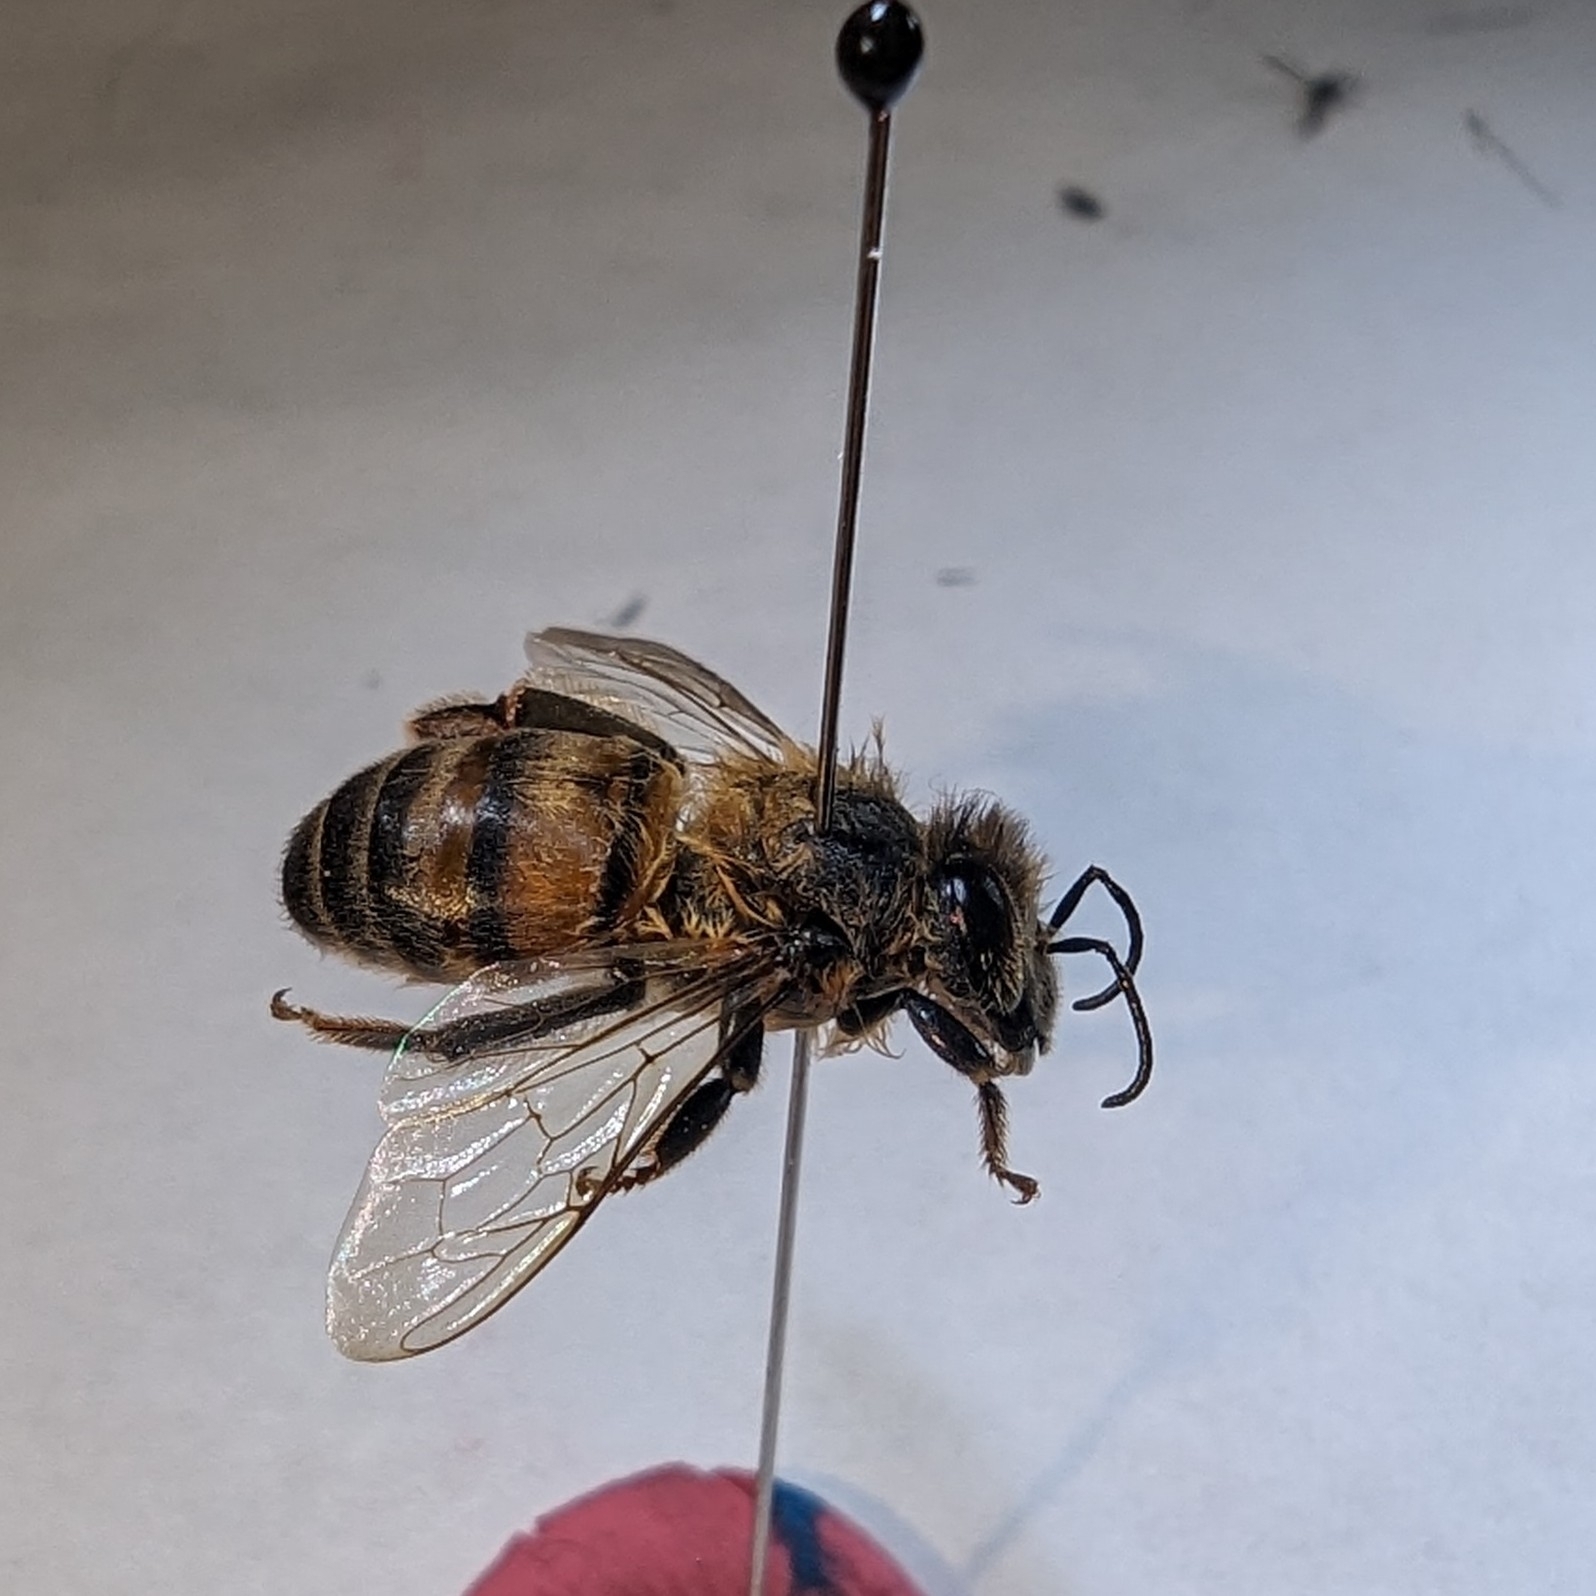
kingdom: Animalia
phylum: Arthropoda
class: Insecta
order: Hymenoptera
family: Apidae
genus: Apis
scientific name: Apis mellifera
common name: Honey bee
